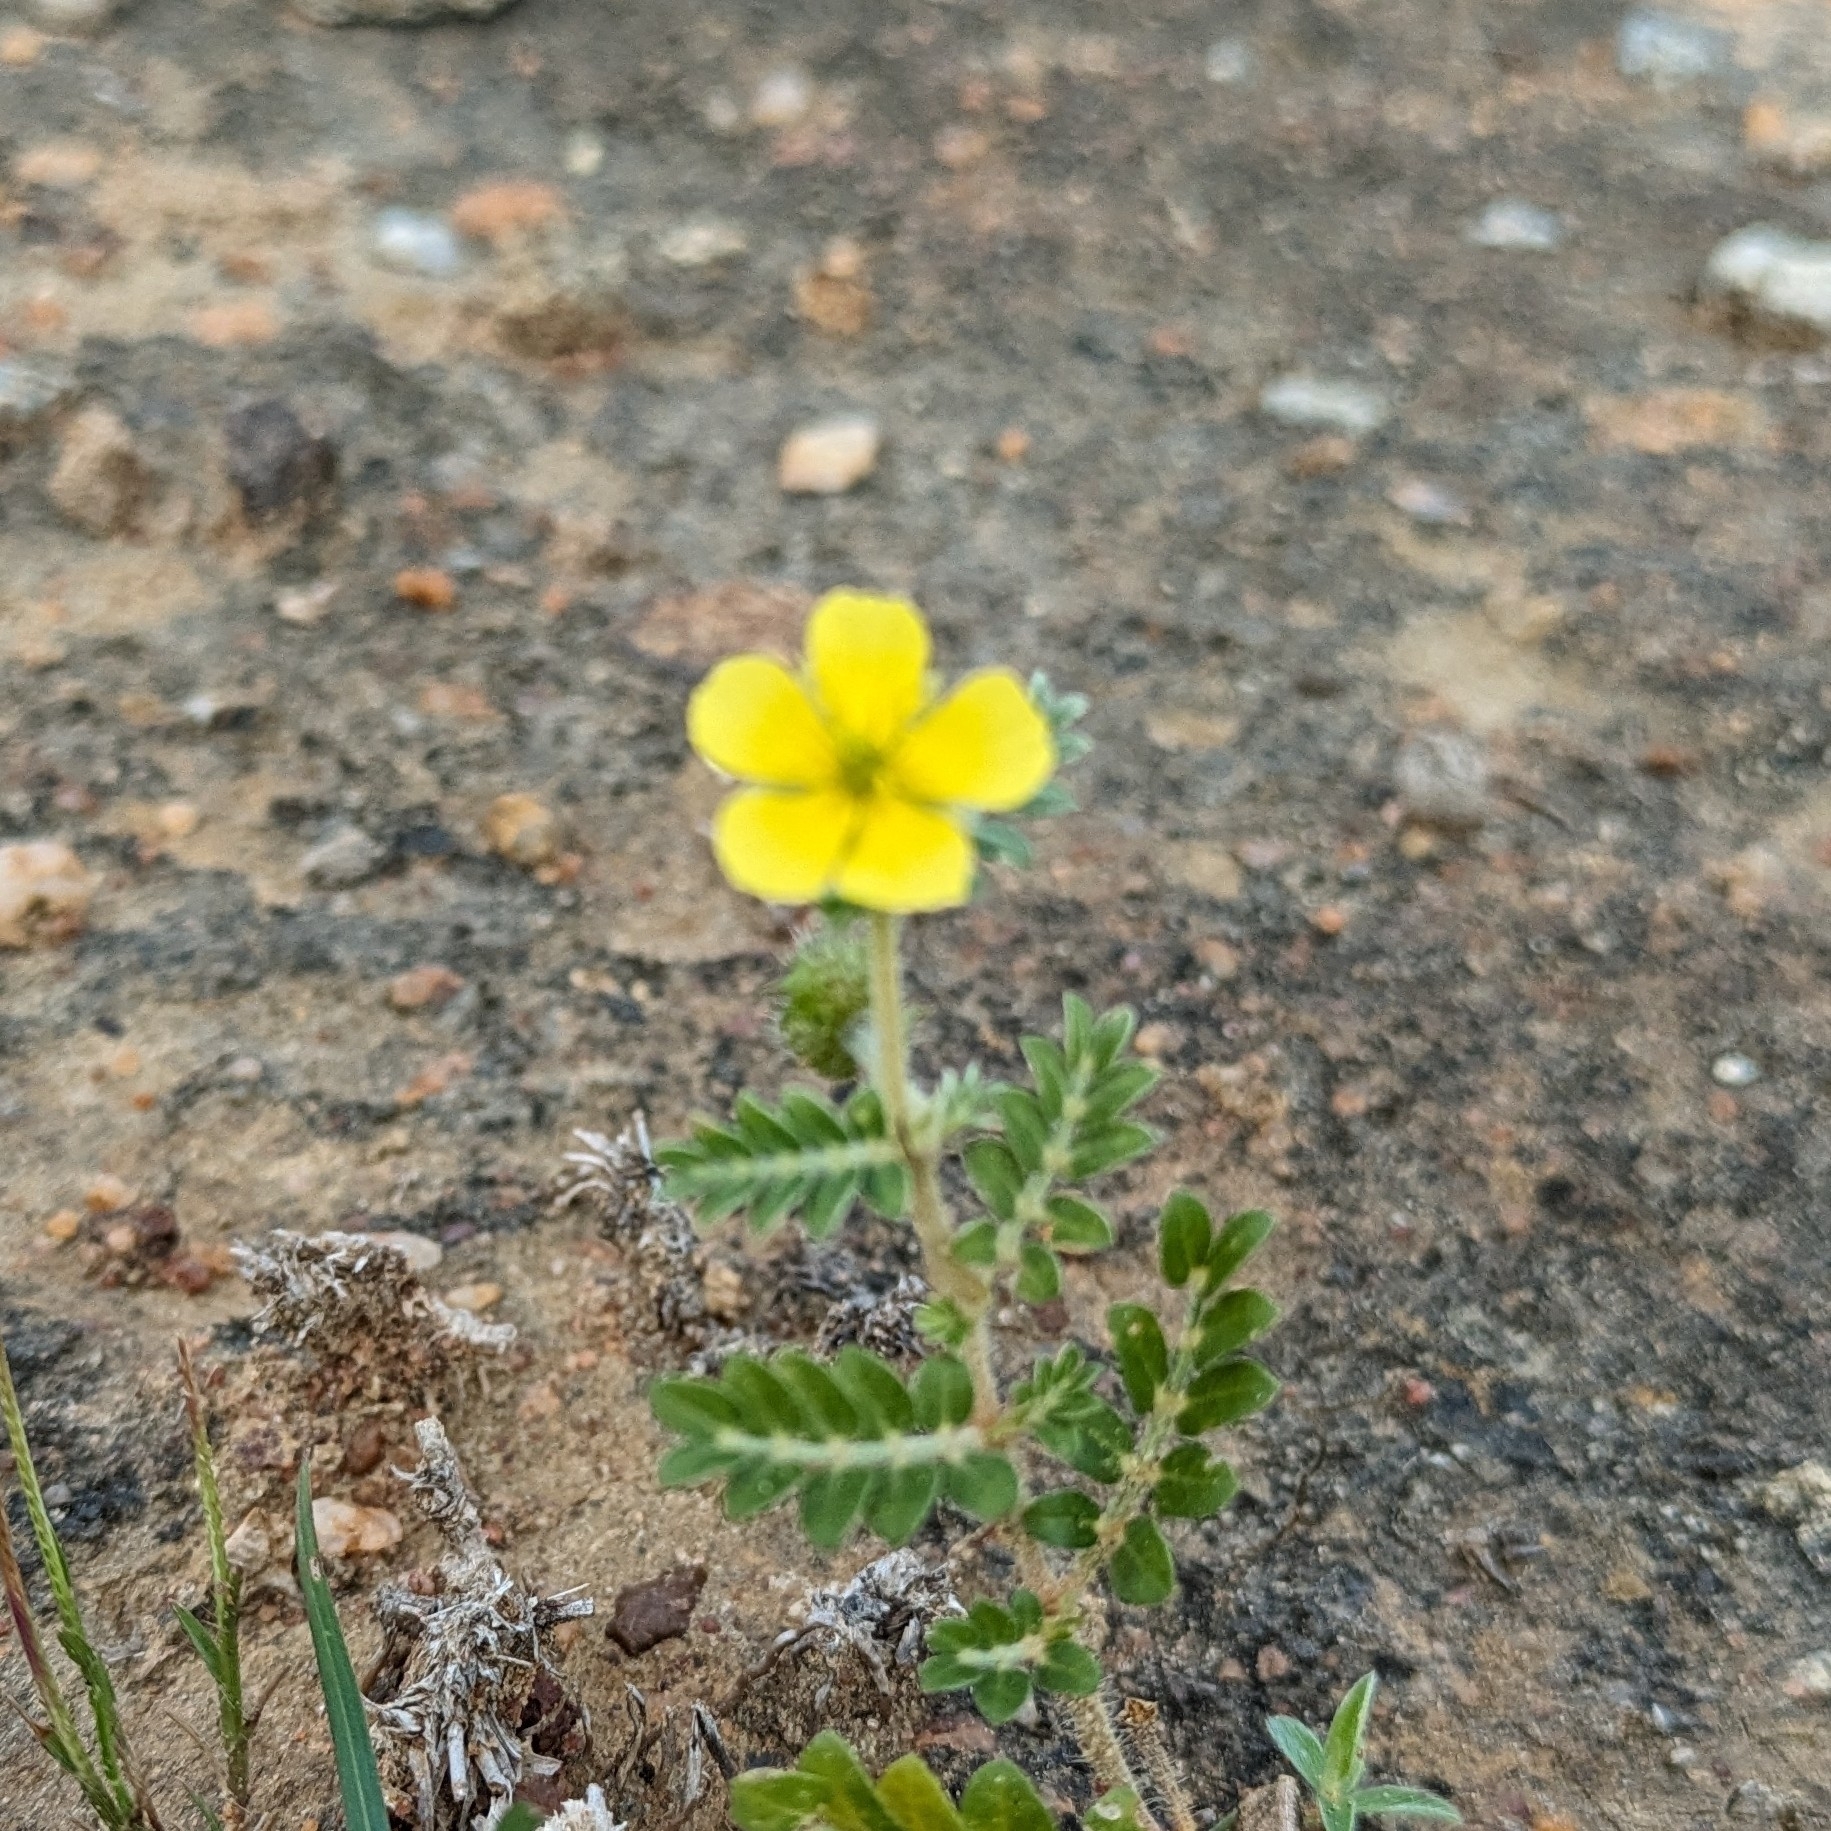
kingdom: Plantae
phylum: Tracheophyta
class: Magnoliopsida
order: Zygophyllales
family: Zygophyllaceae
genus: Tribulus
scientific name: Tribulus terrestris
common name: Puncturevine
